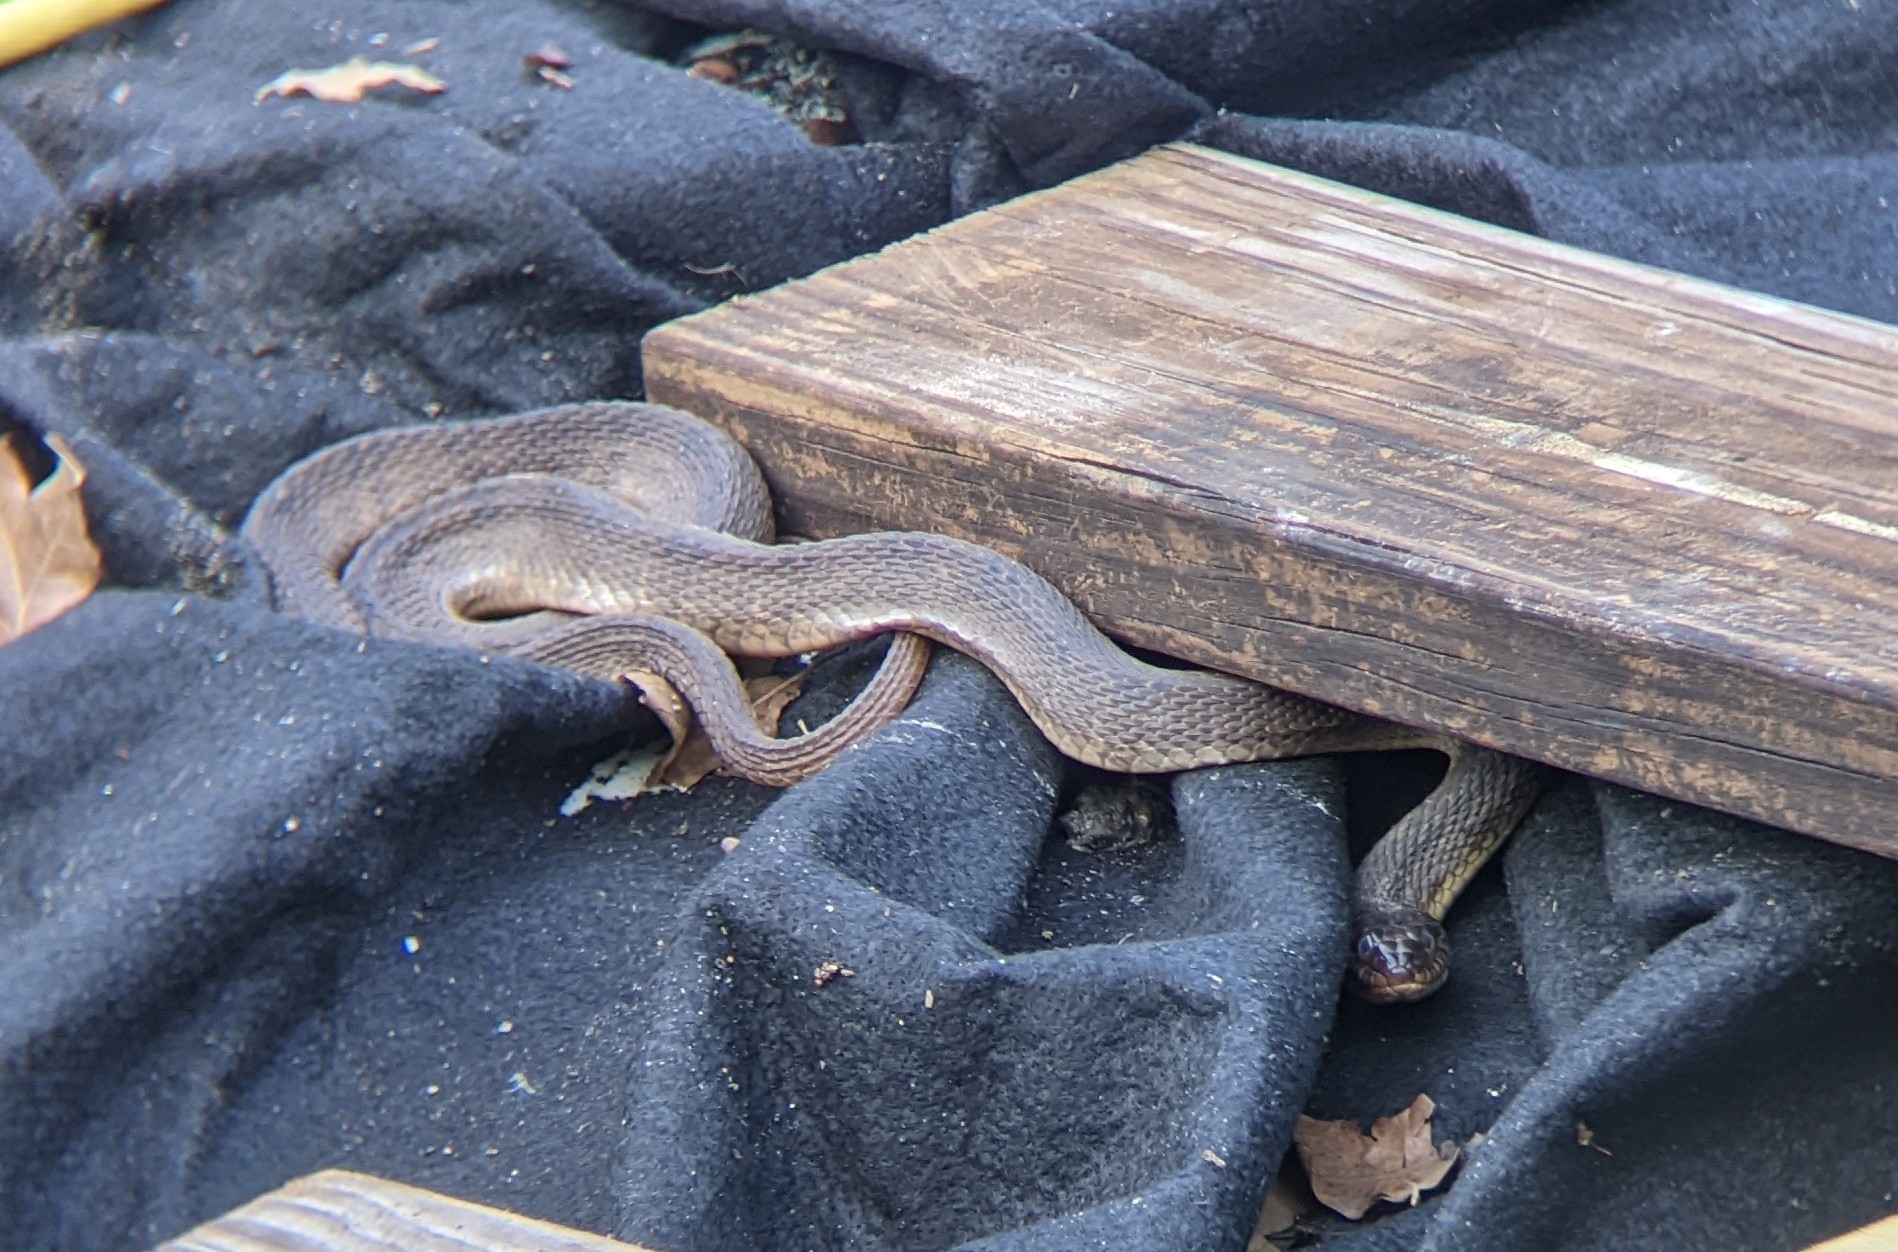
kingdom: Animalia
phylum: Chordata
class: Squamata
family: Colubridae
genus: Nerodia
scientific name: Nerodia erythrogaster
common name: Plainbelly water snake
